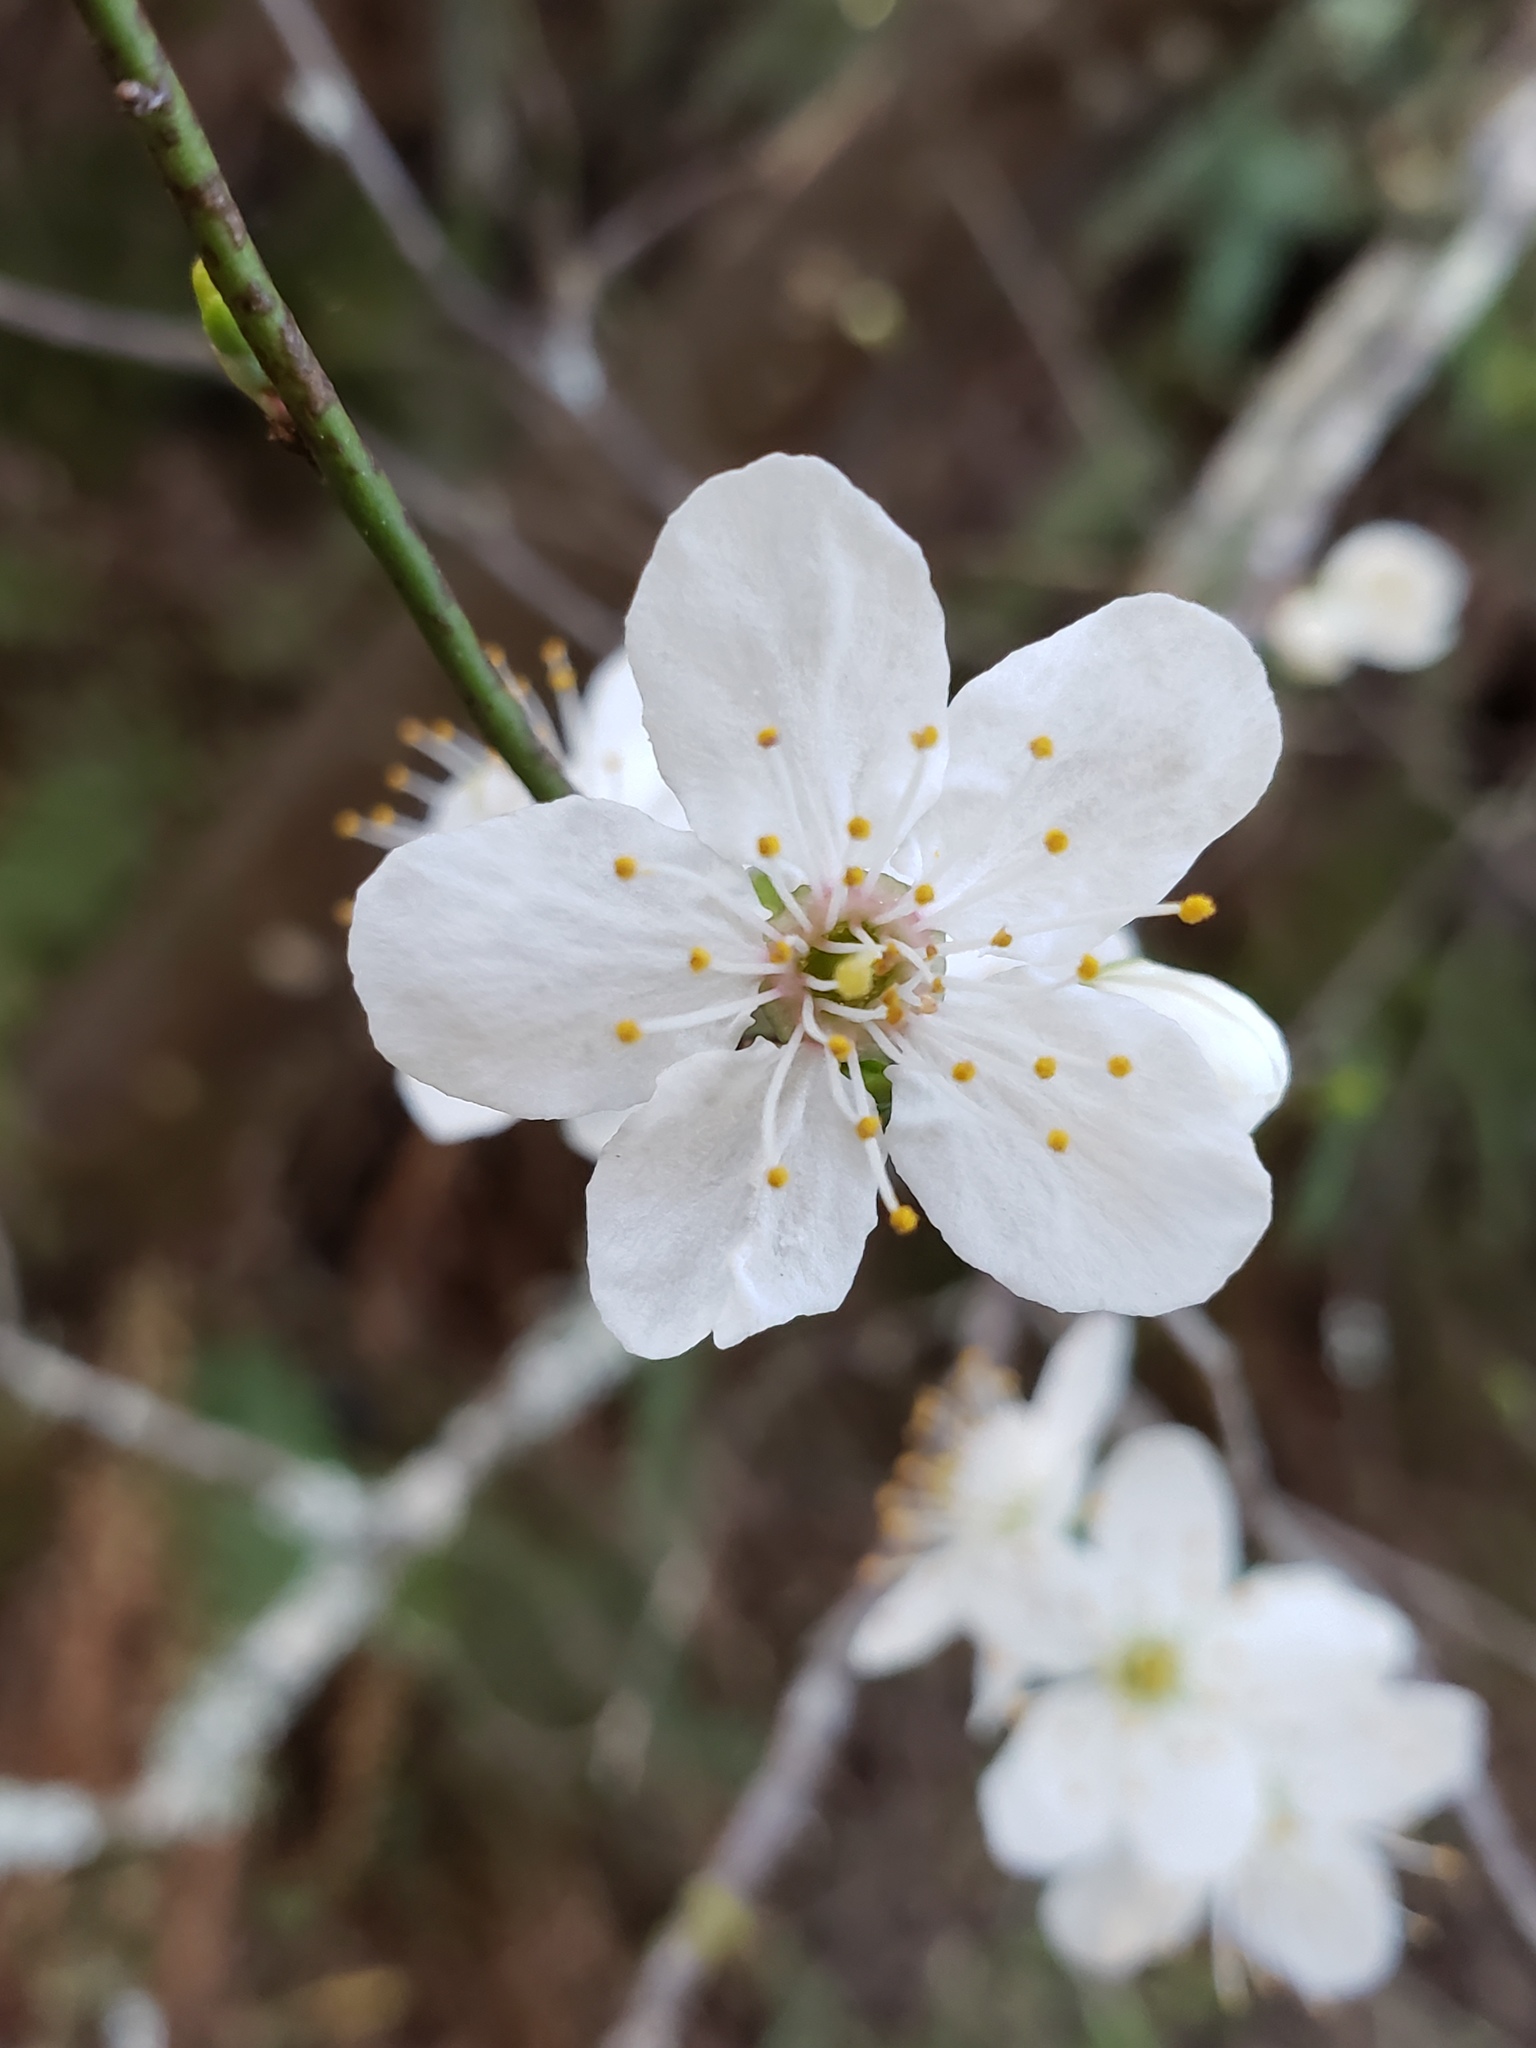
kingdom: Plantae
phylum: Tracheophyta
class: Magnoliopsida
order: Rosales
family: Rosaceae
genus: Prunus
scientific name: Prunus cerasifera
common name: Cherry plum
